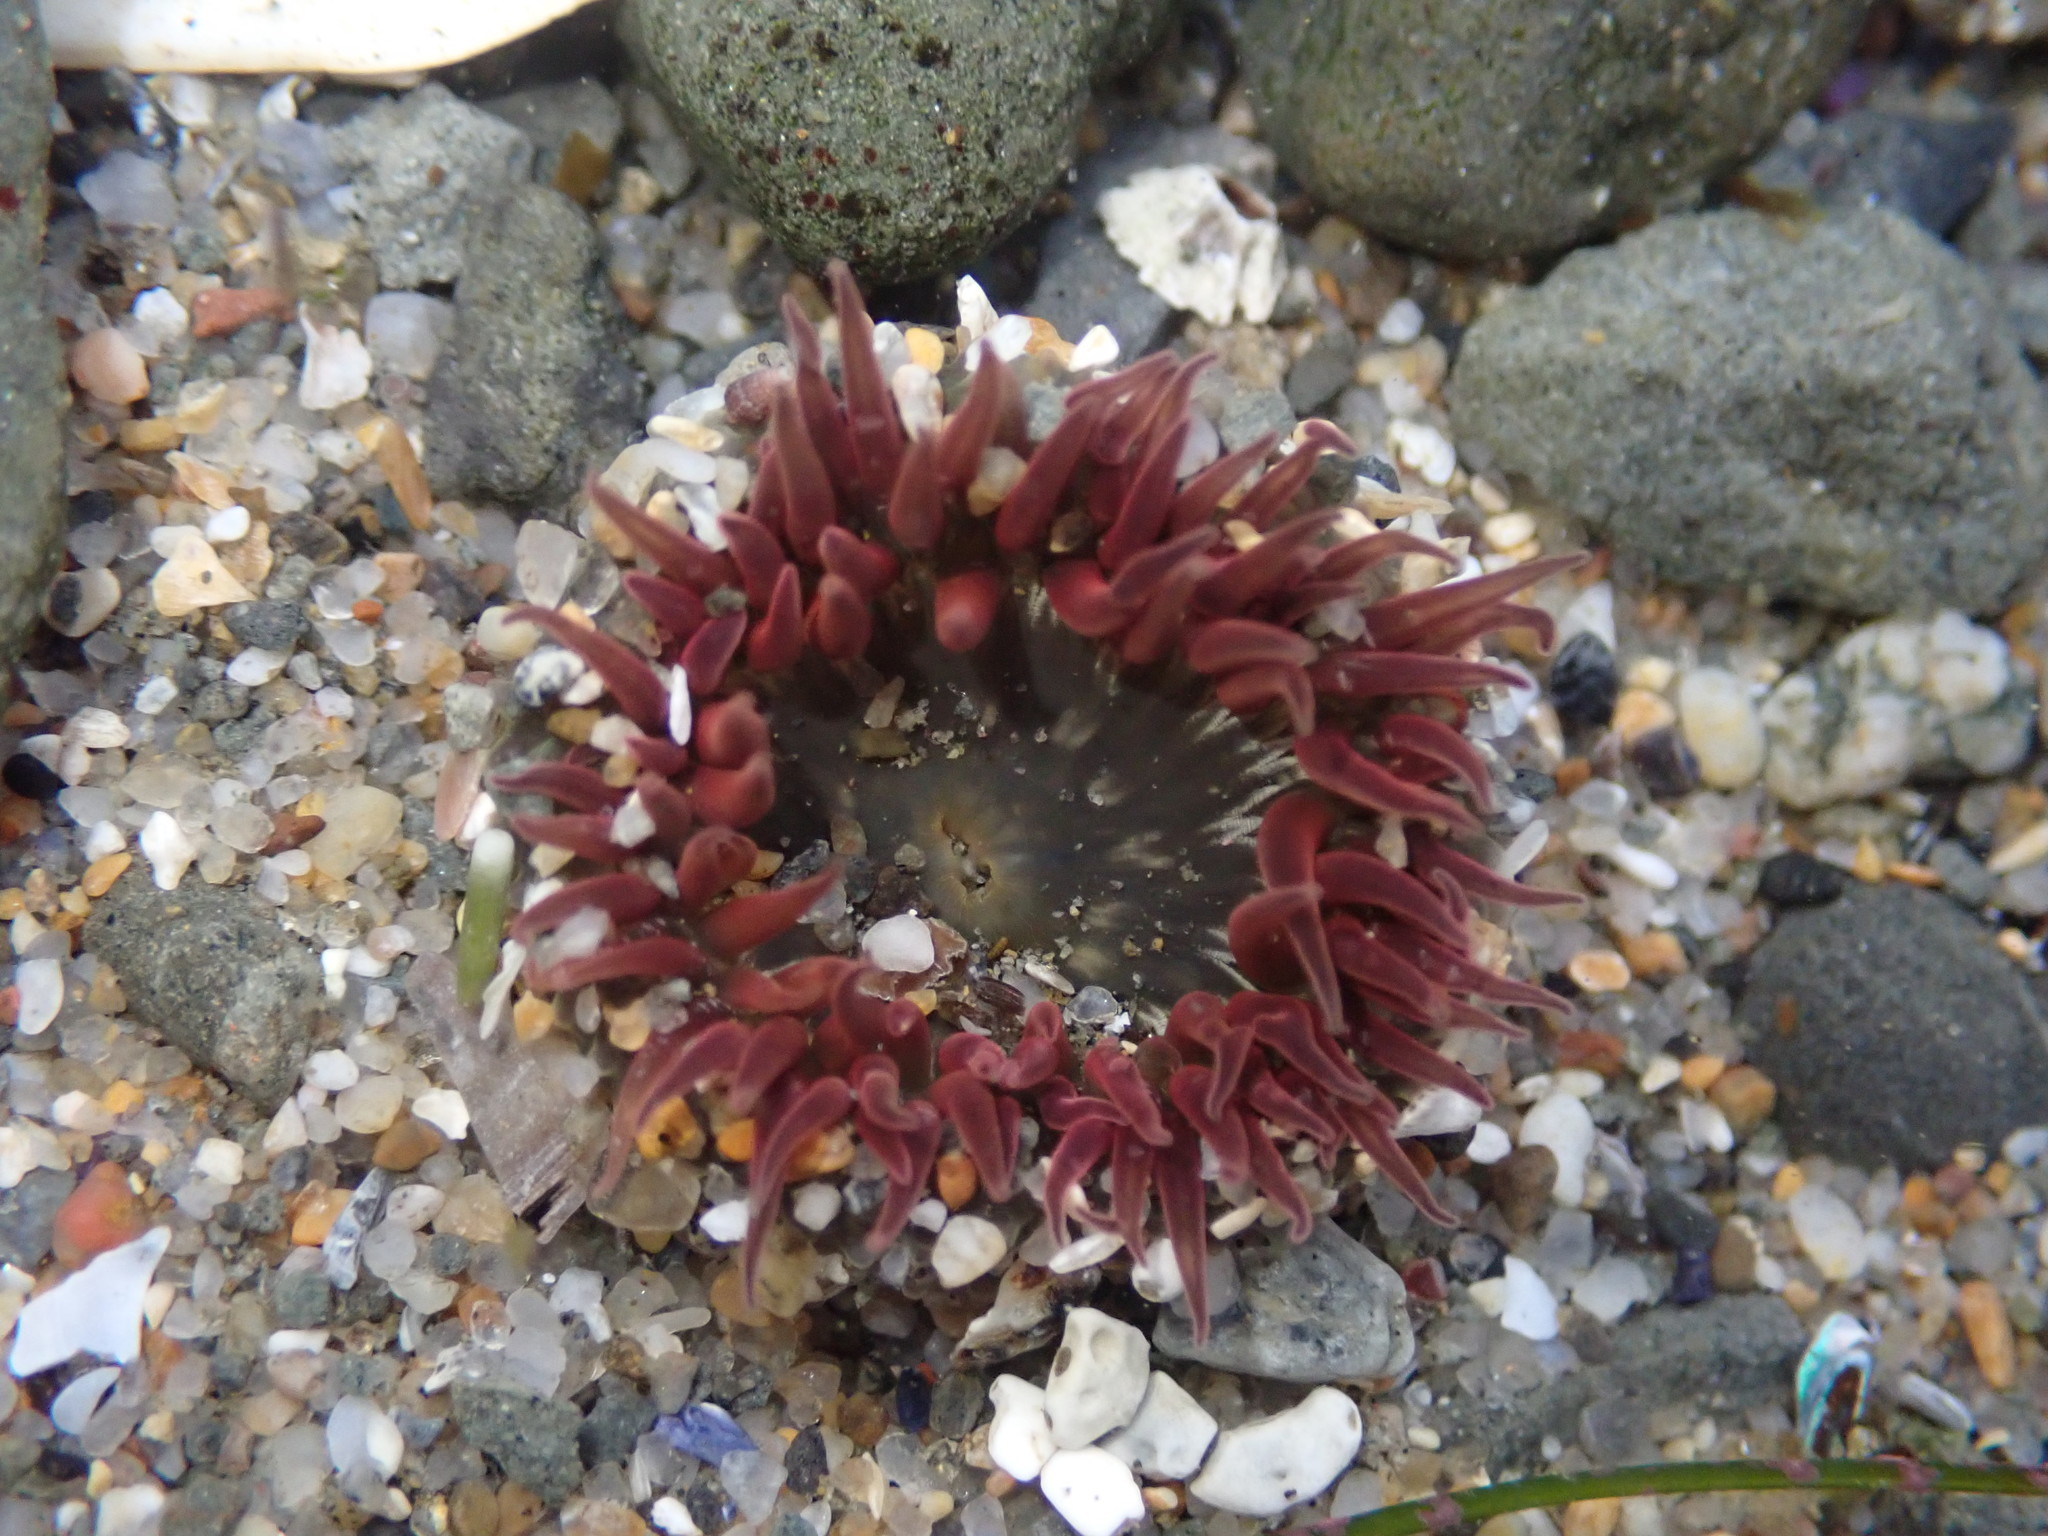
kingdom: Animalia
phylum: Cnidaria
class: Anthozoa
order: Actiniaria
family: Actiniidae
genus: Anthopleura
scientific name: Anthopleura artemisia
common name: Buried sea anemone
